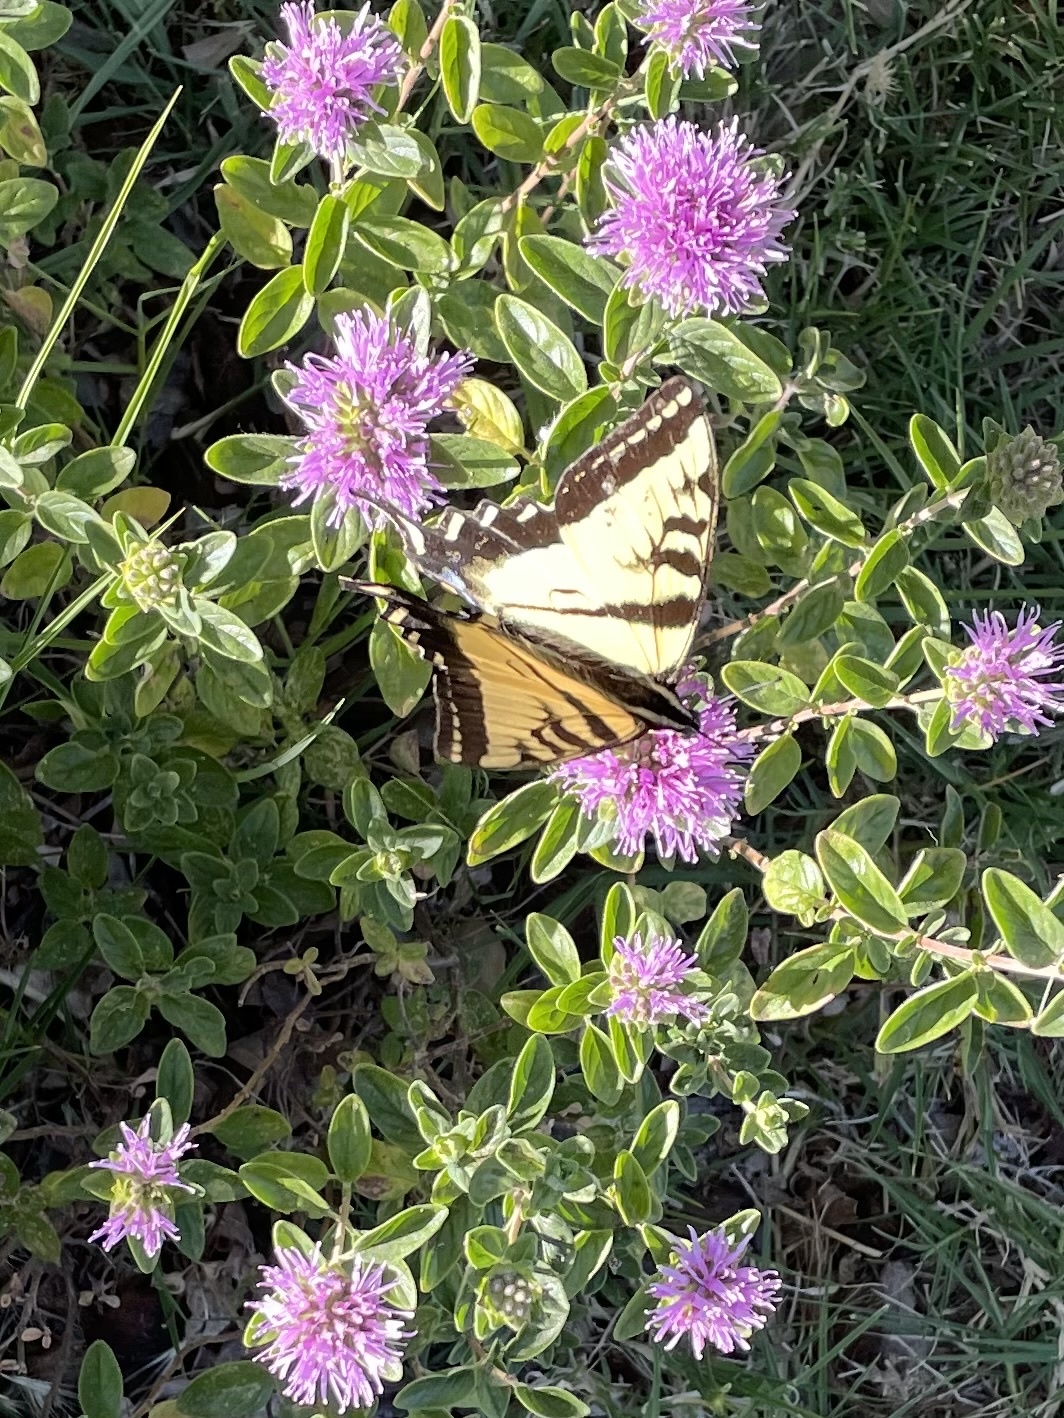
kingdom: Animalia
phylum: Arthropoda
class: Insecta
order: Lepidoptera
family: Papilionidae
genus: Papilio
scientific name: Papilio rutulus
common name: Western tiger swallowtail
